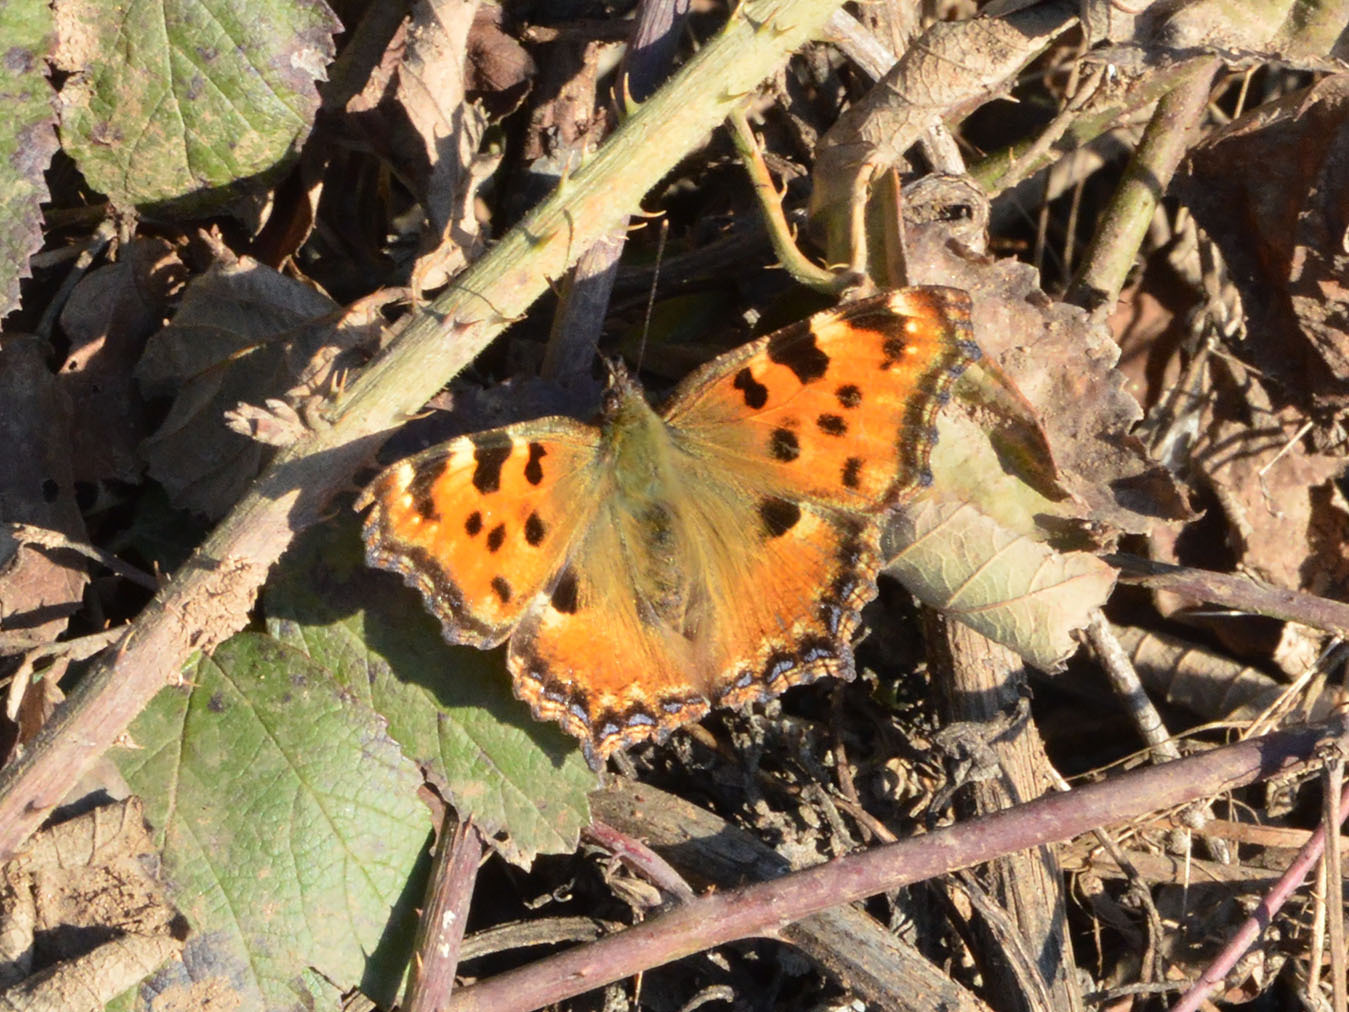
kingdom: Animalia
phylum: Arthropoda
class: Insecta
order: Lepidoptera
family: Nymphalidae
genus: Nymphalis
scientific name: Nymphalis polychloros
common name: Large tortoiseshell
